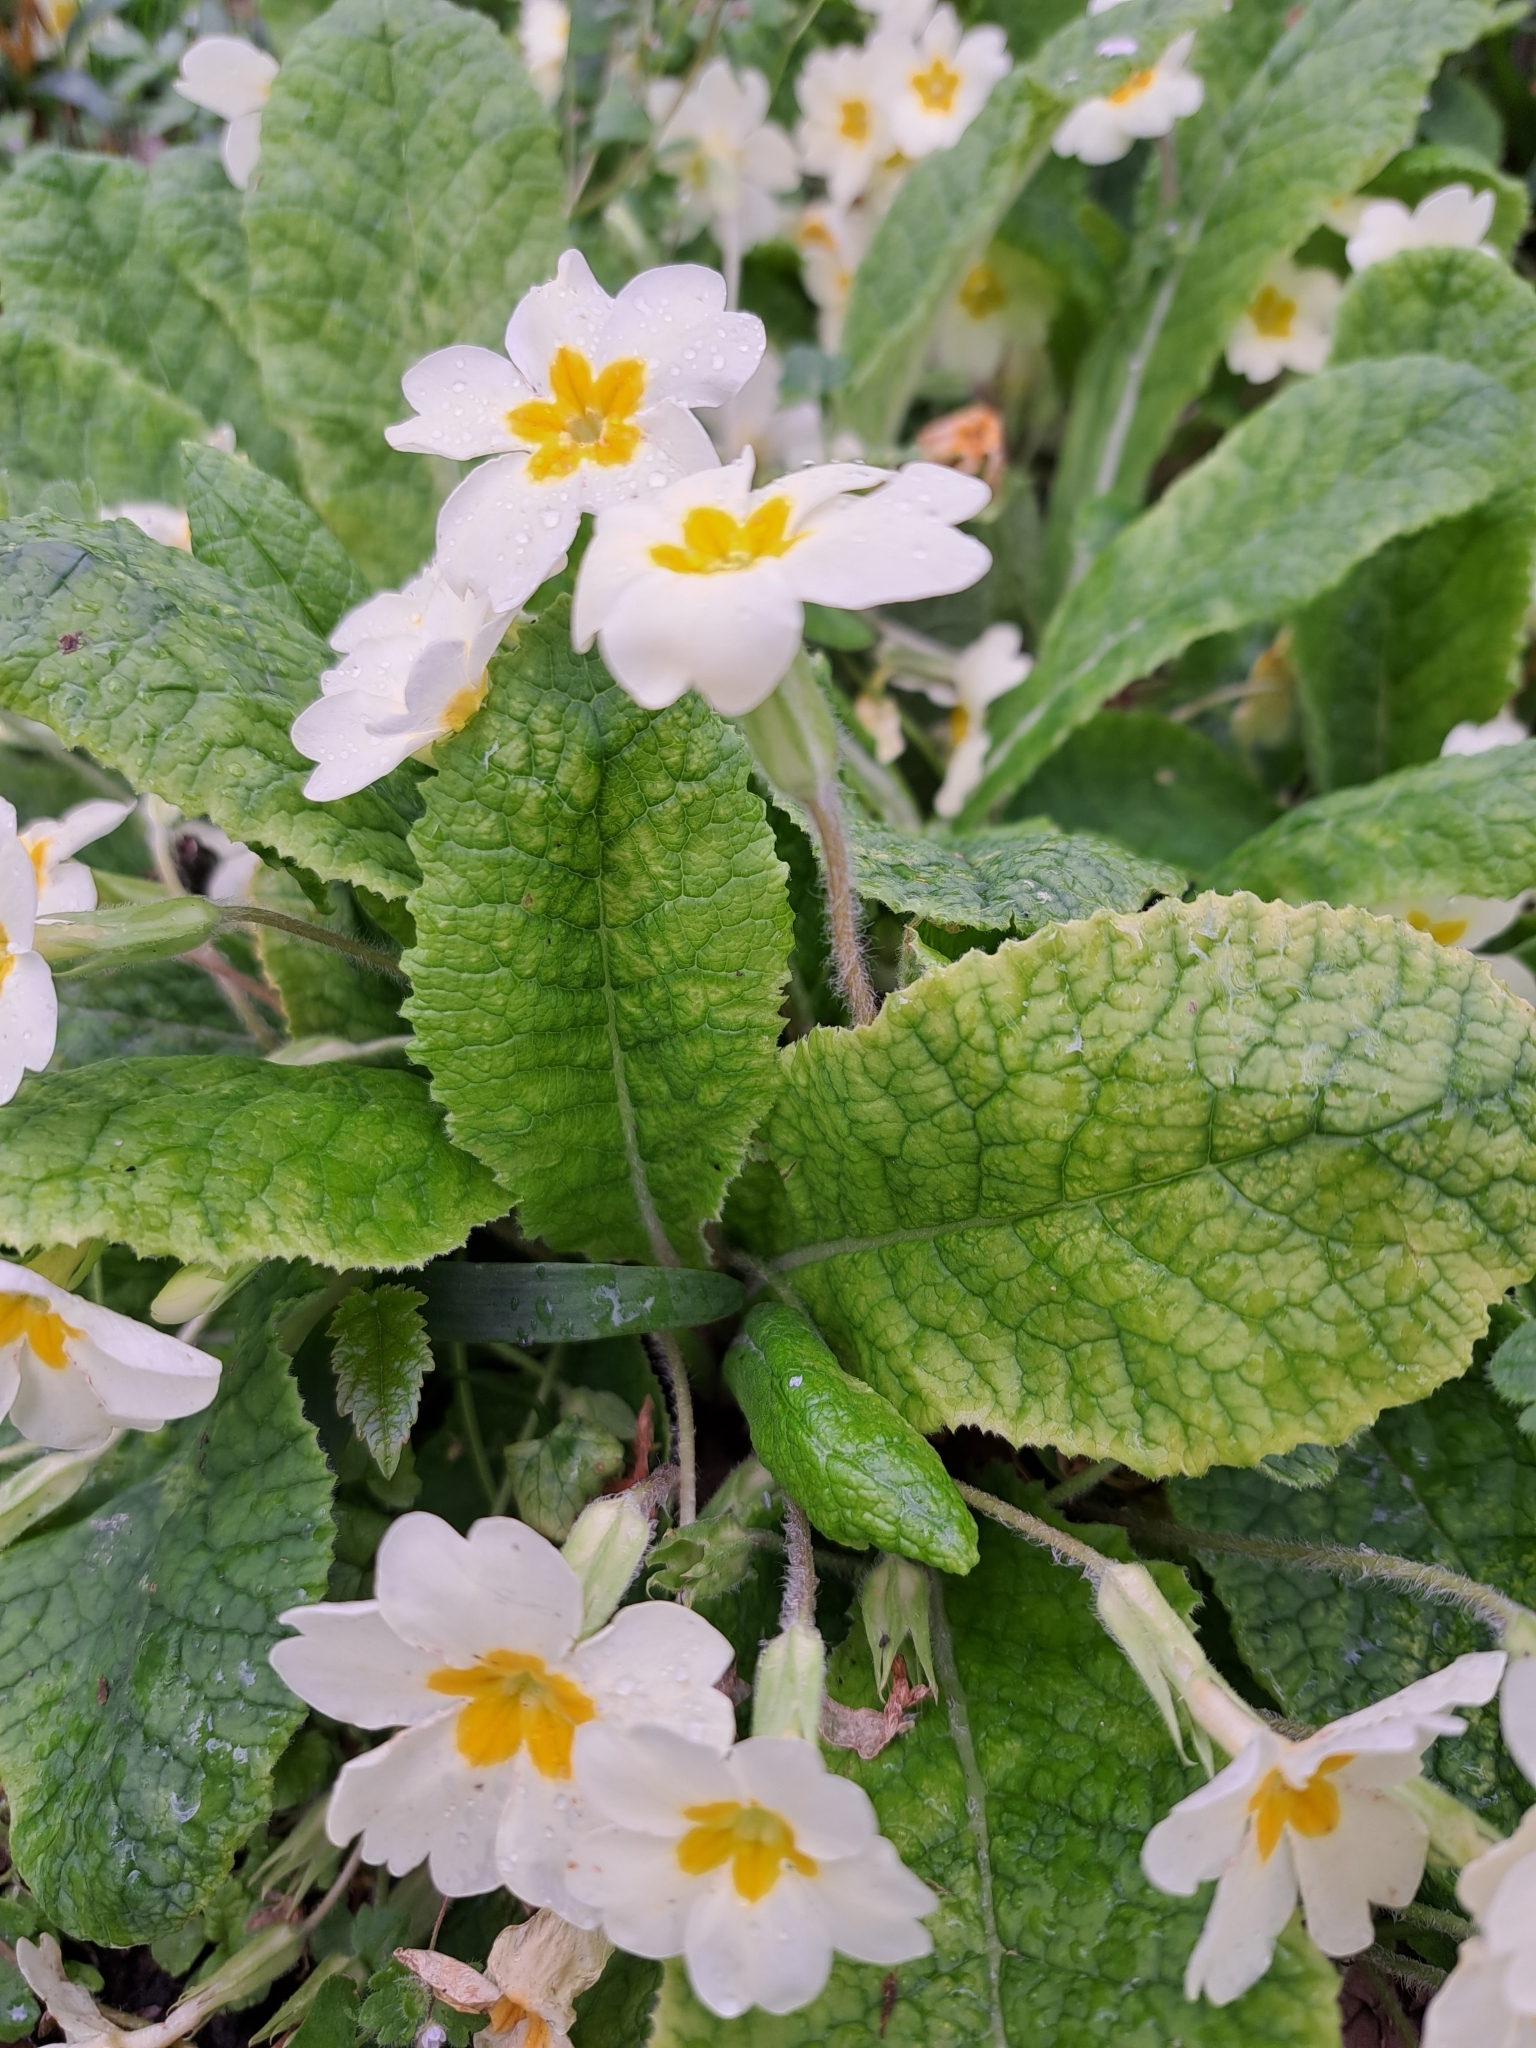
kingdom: Plantae
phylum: Tracheophyta
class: Magnoliopsida
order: Ericales
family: Primulaceae
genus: Primula
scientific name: Primula vulgaris
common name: Primrose
